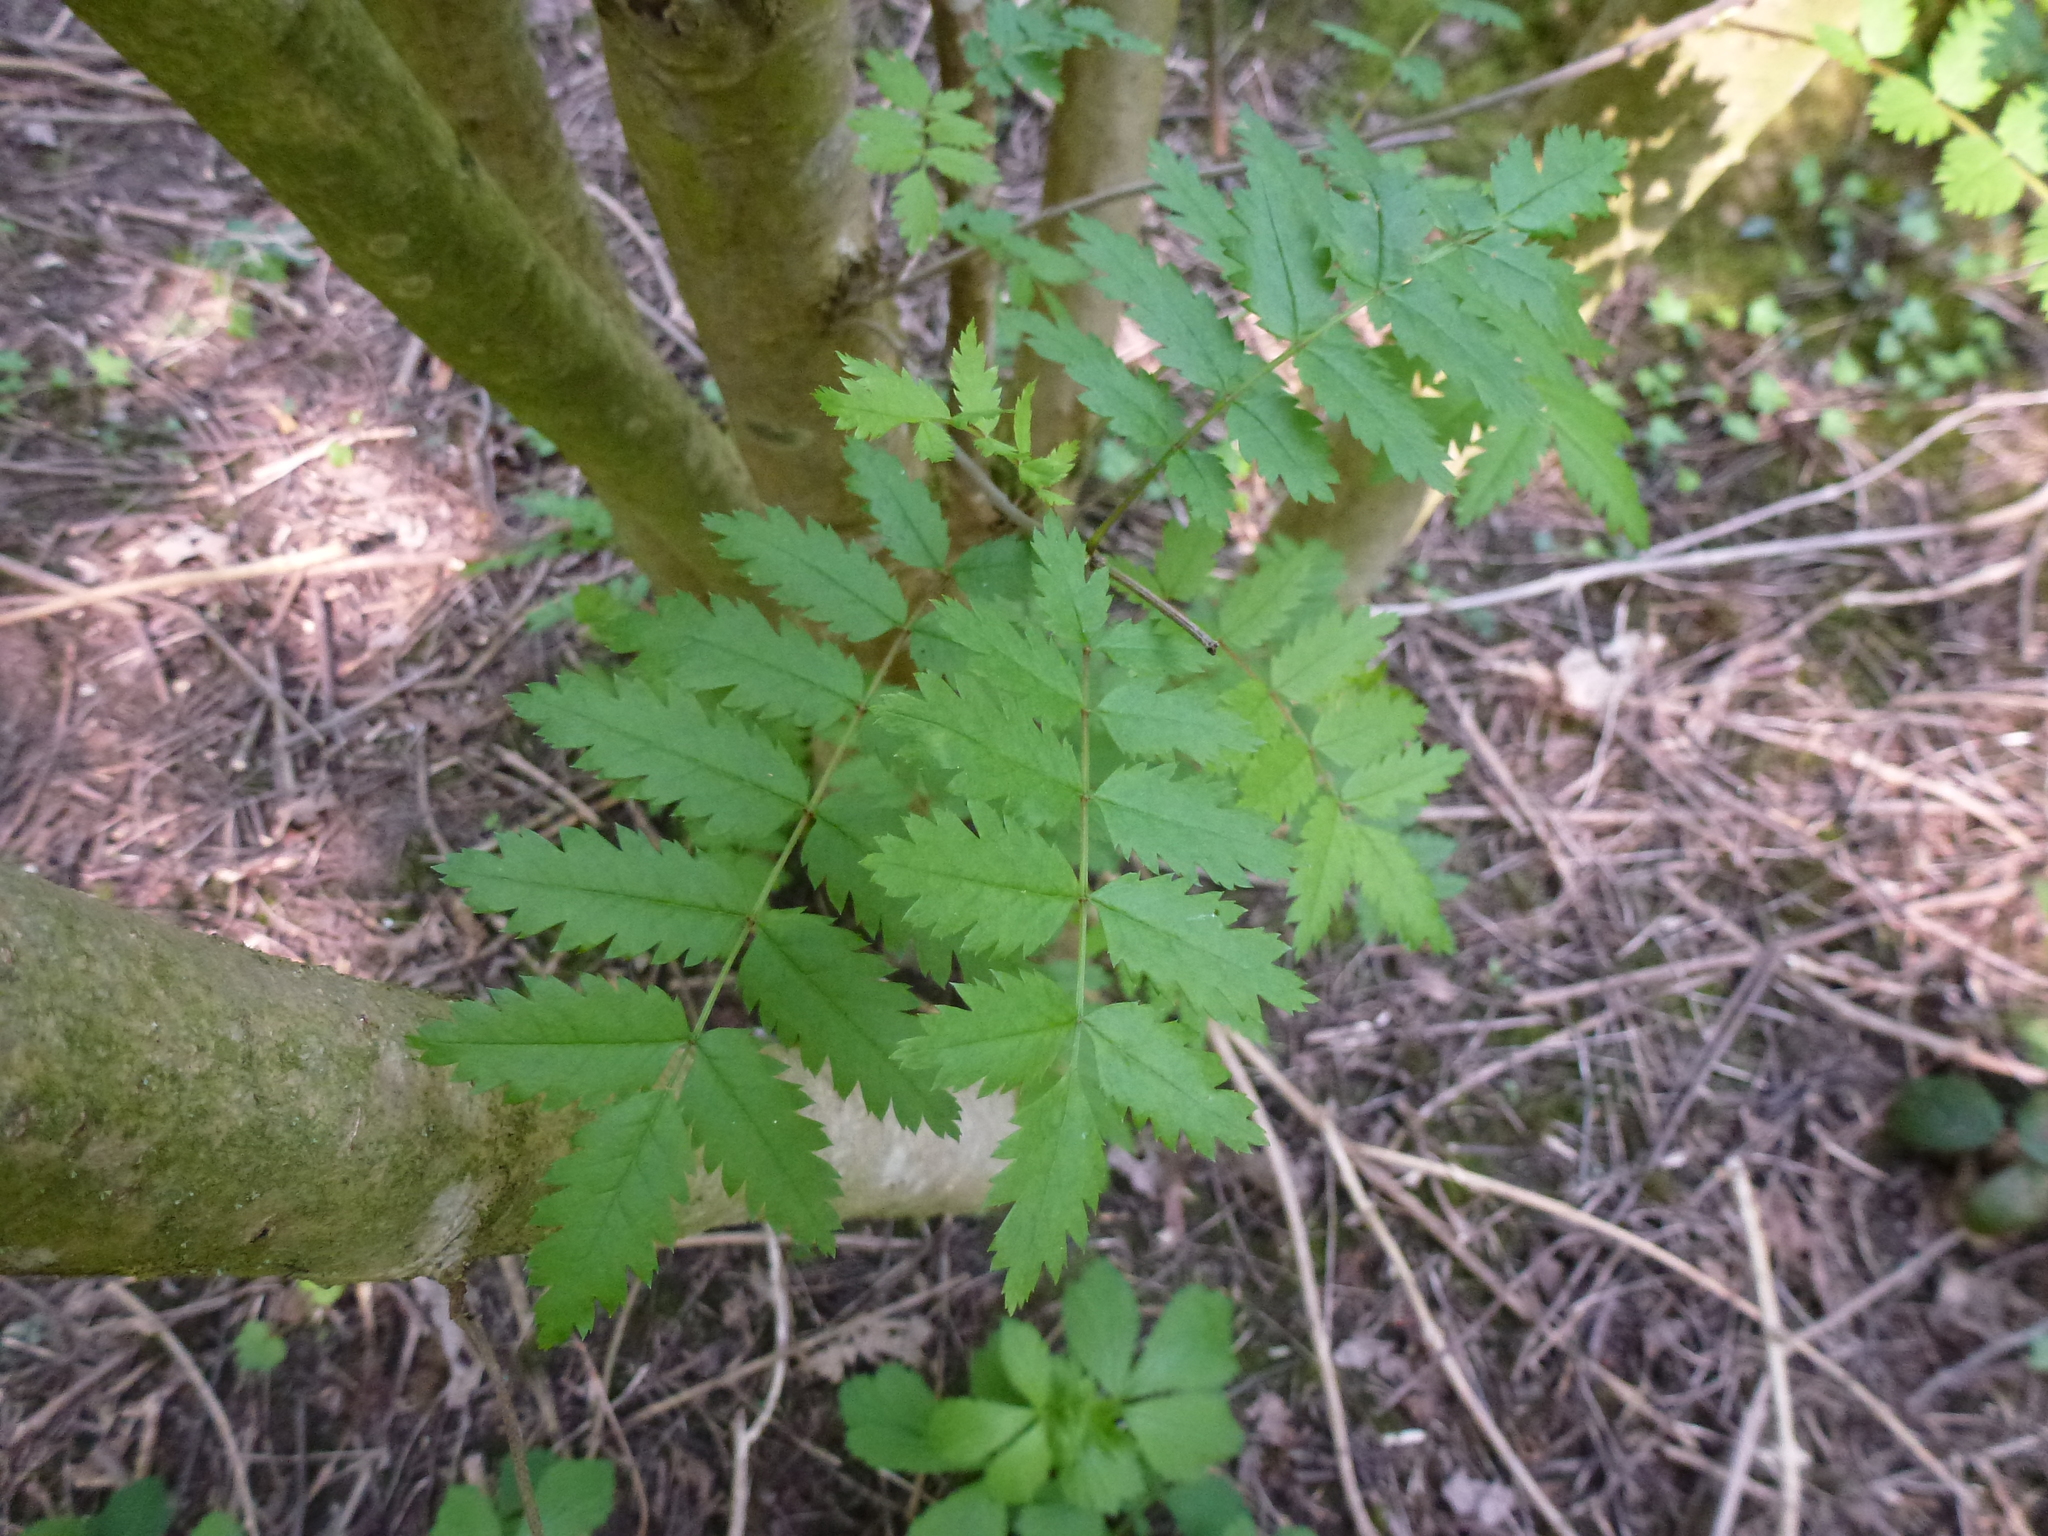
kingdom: Plantae
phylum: Tracheophyta
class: Magnoliopsida
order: Rosales
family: Rosaceae
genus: Sorbus
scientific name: Sorbus aucuparia
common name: Rowan
